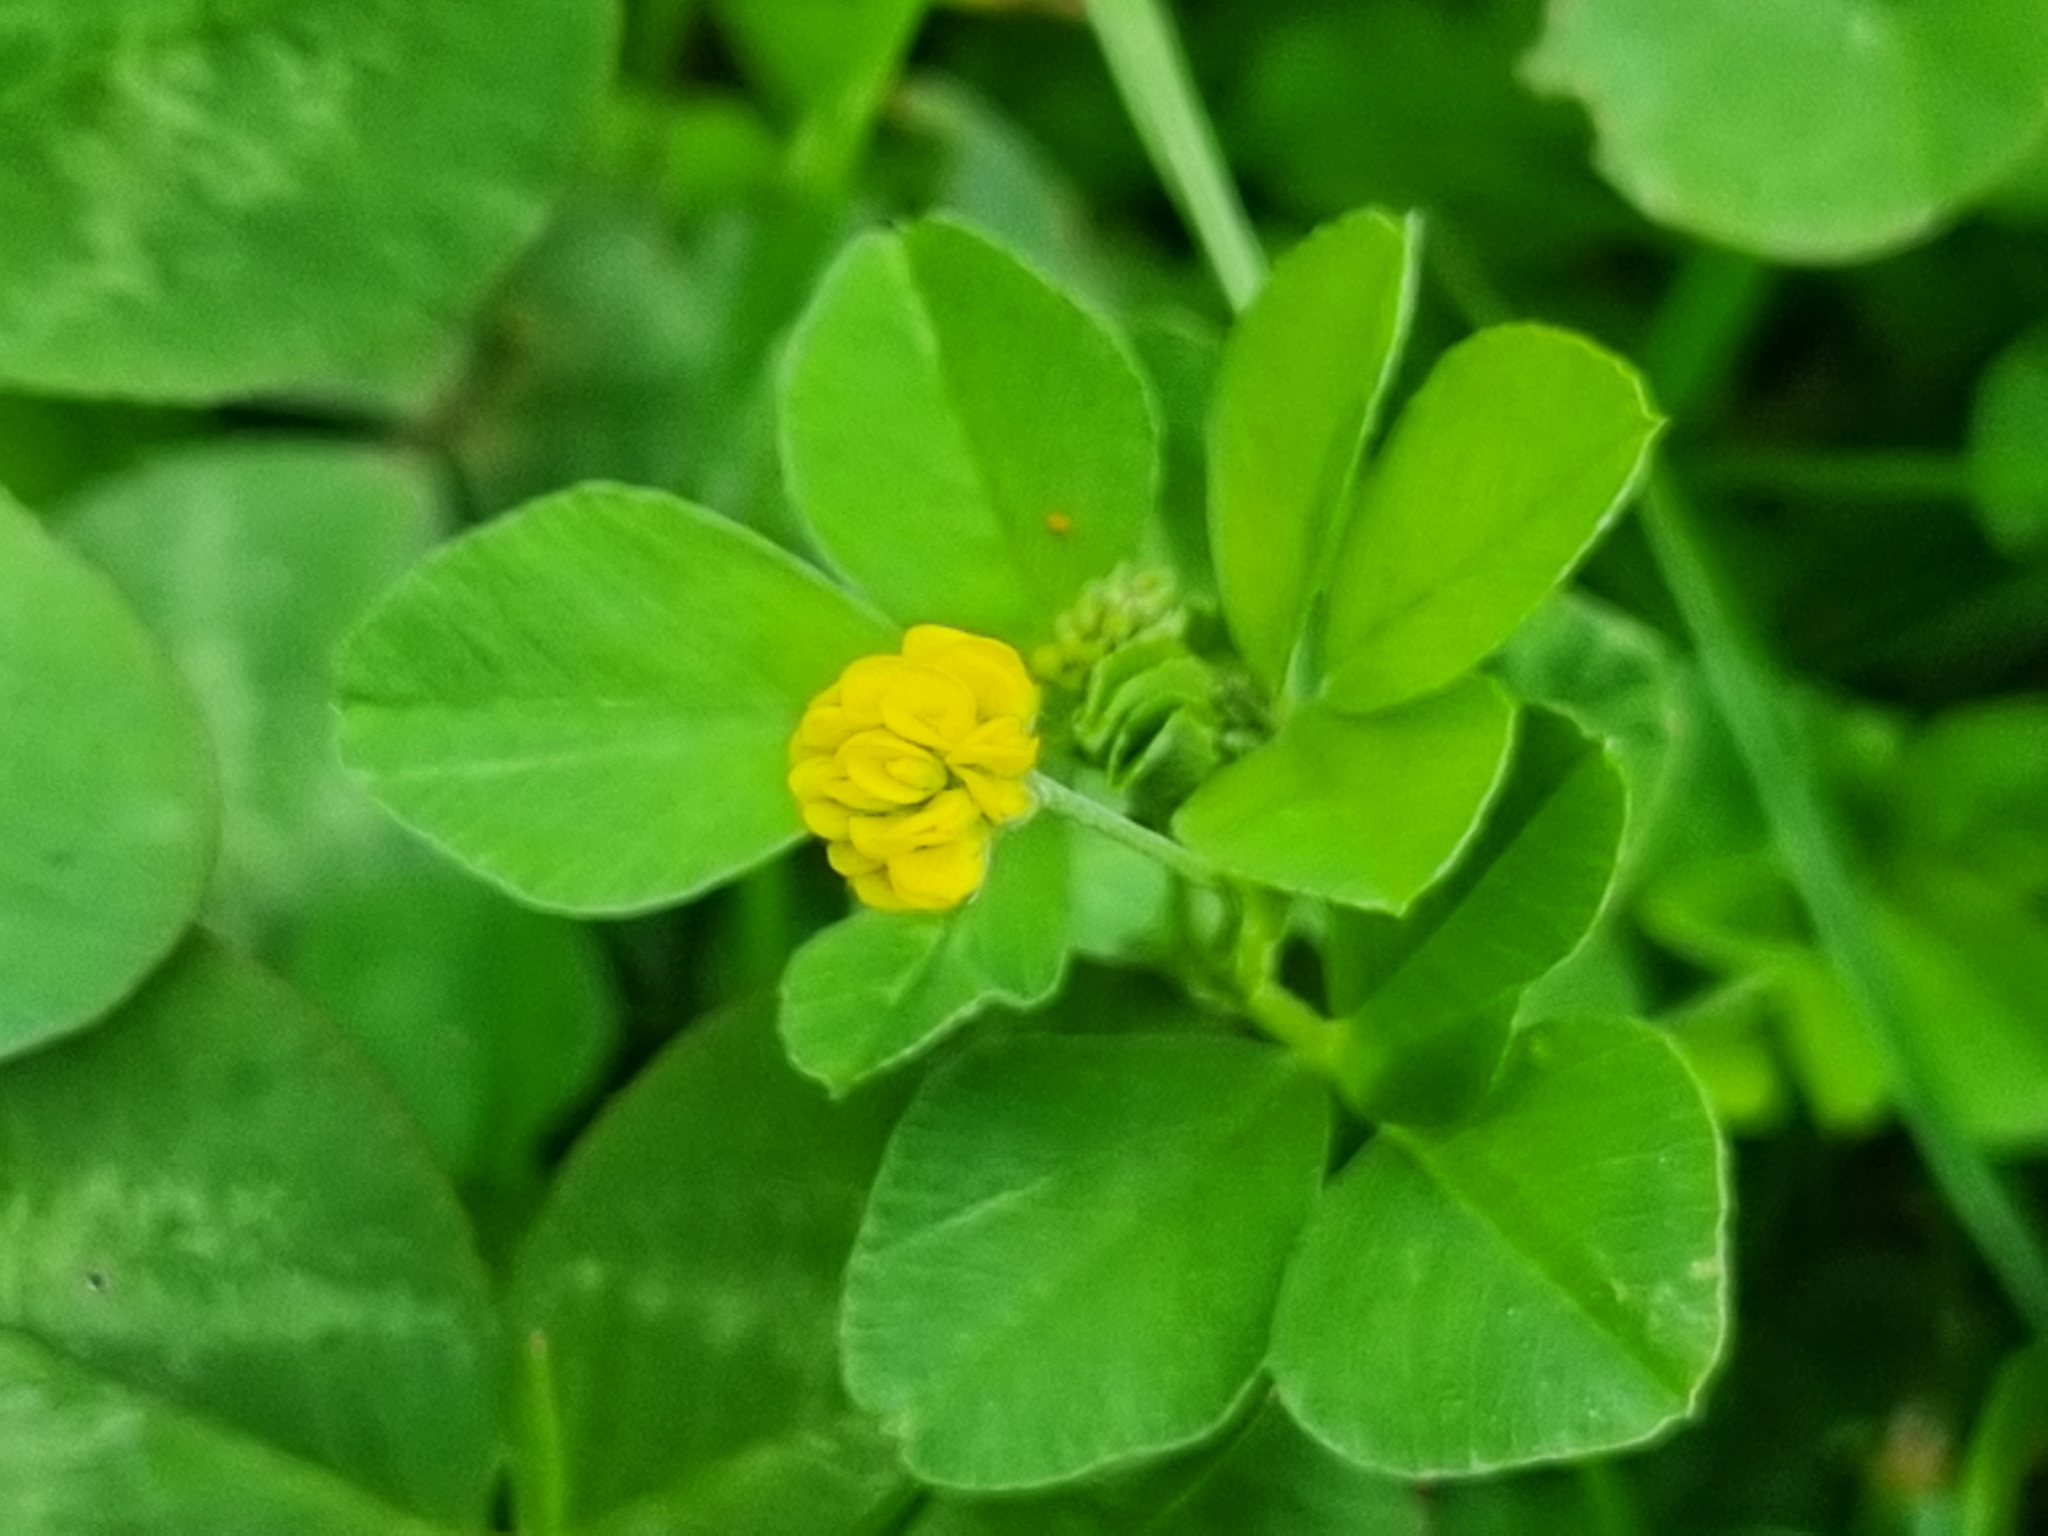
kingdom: Plantae
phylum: Tracheophyta
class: Magnoliopsida
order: Fabales
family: Fabaceae
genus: Medicago
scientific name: Medicago lupulina
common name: Black medick
